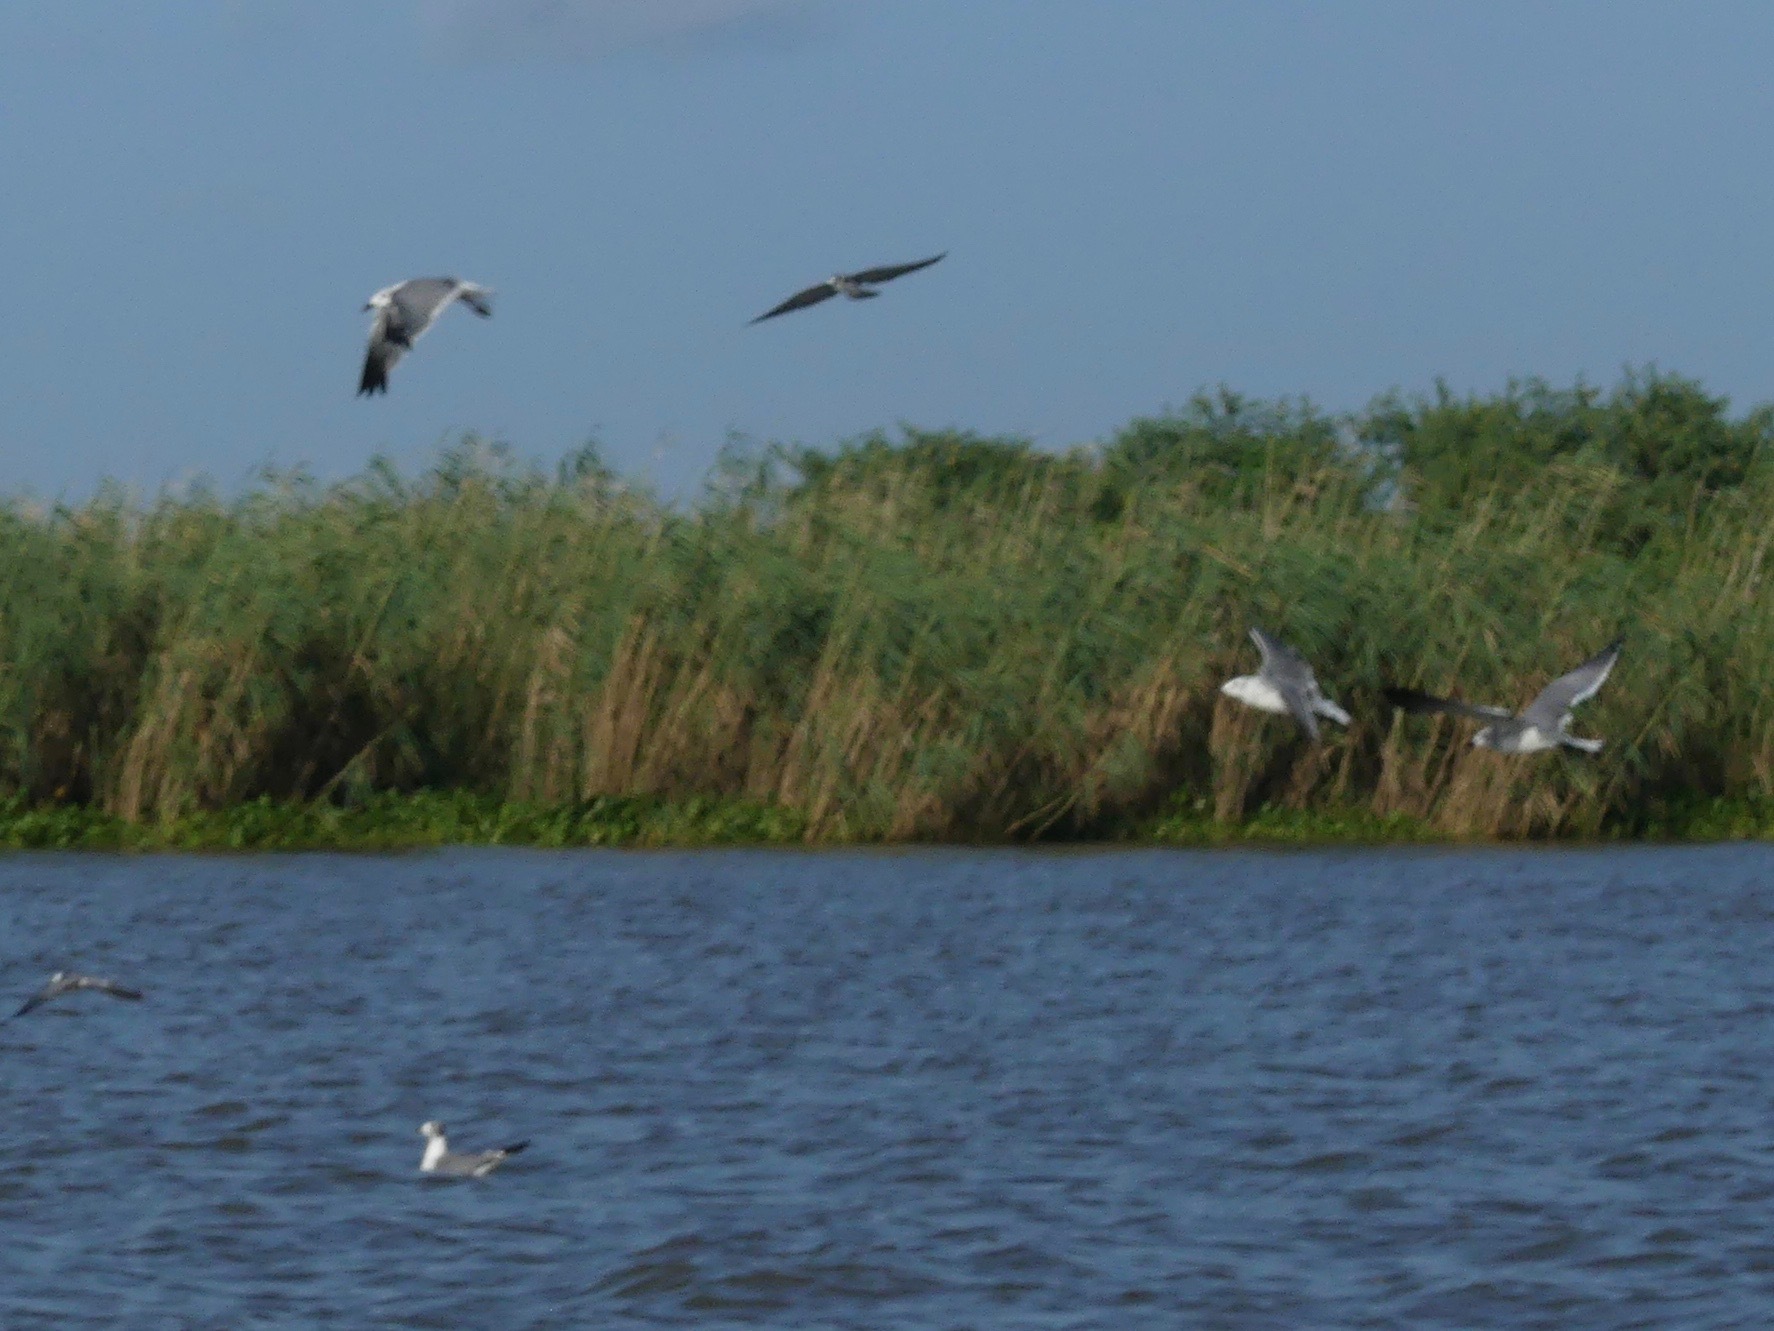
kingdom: Animalia
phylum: Chordata
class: Aves
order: Charadriiformes
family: Laridae
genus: Leucophaeus
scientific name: Leucophaeus atricilla
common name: Laughing gull
